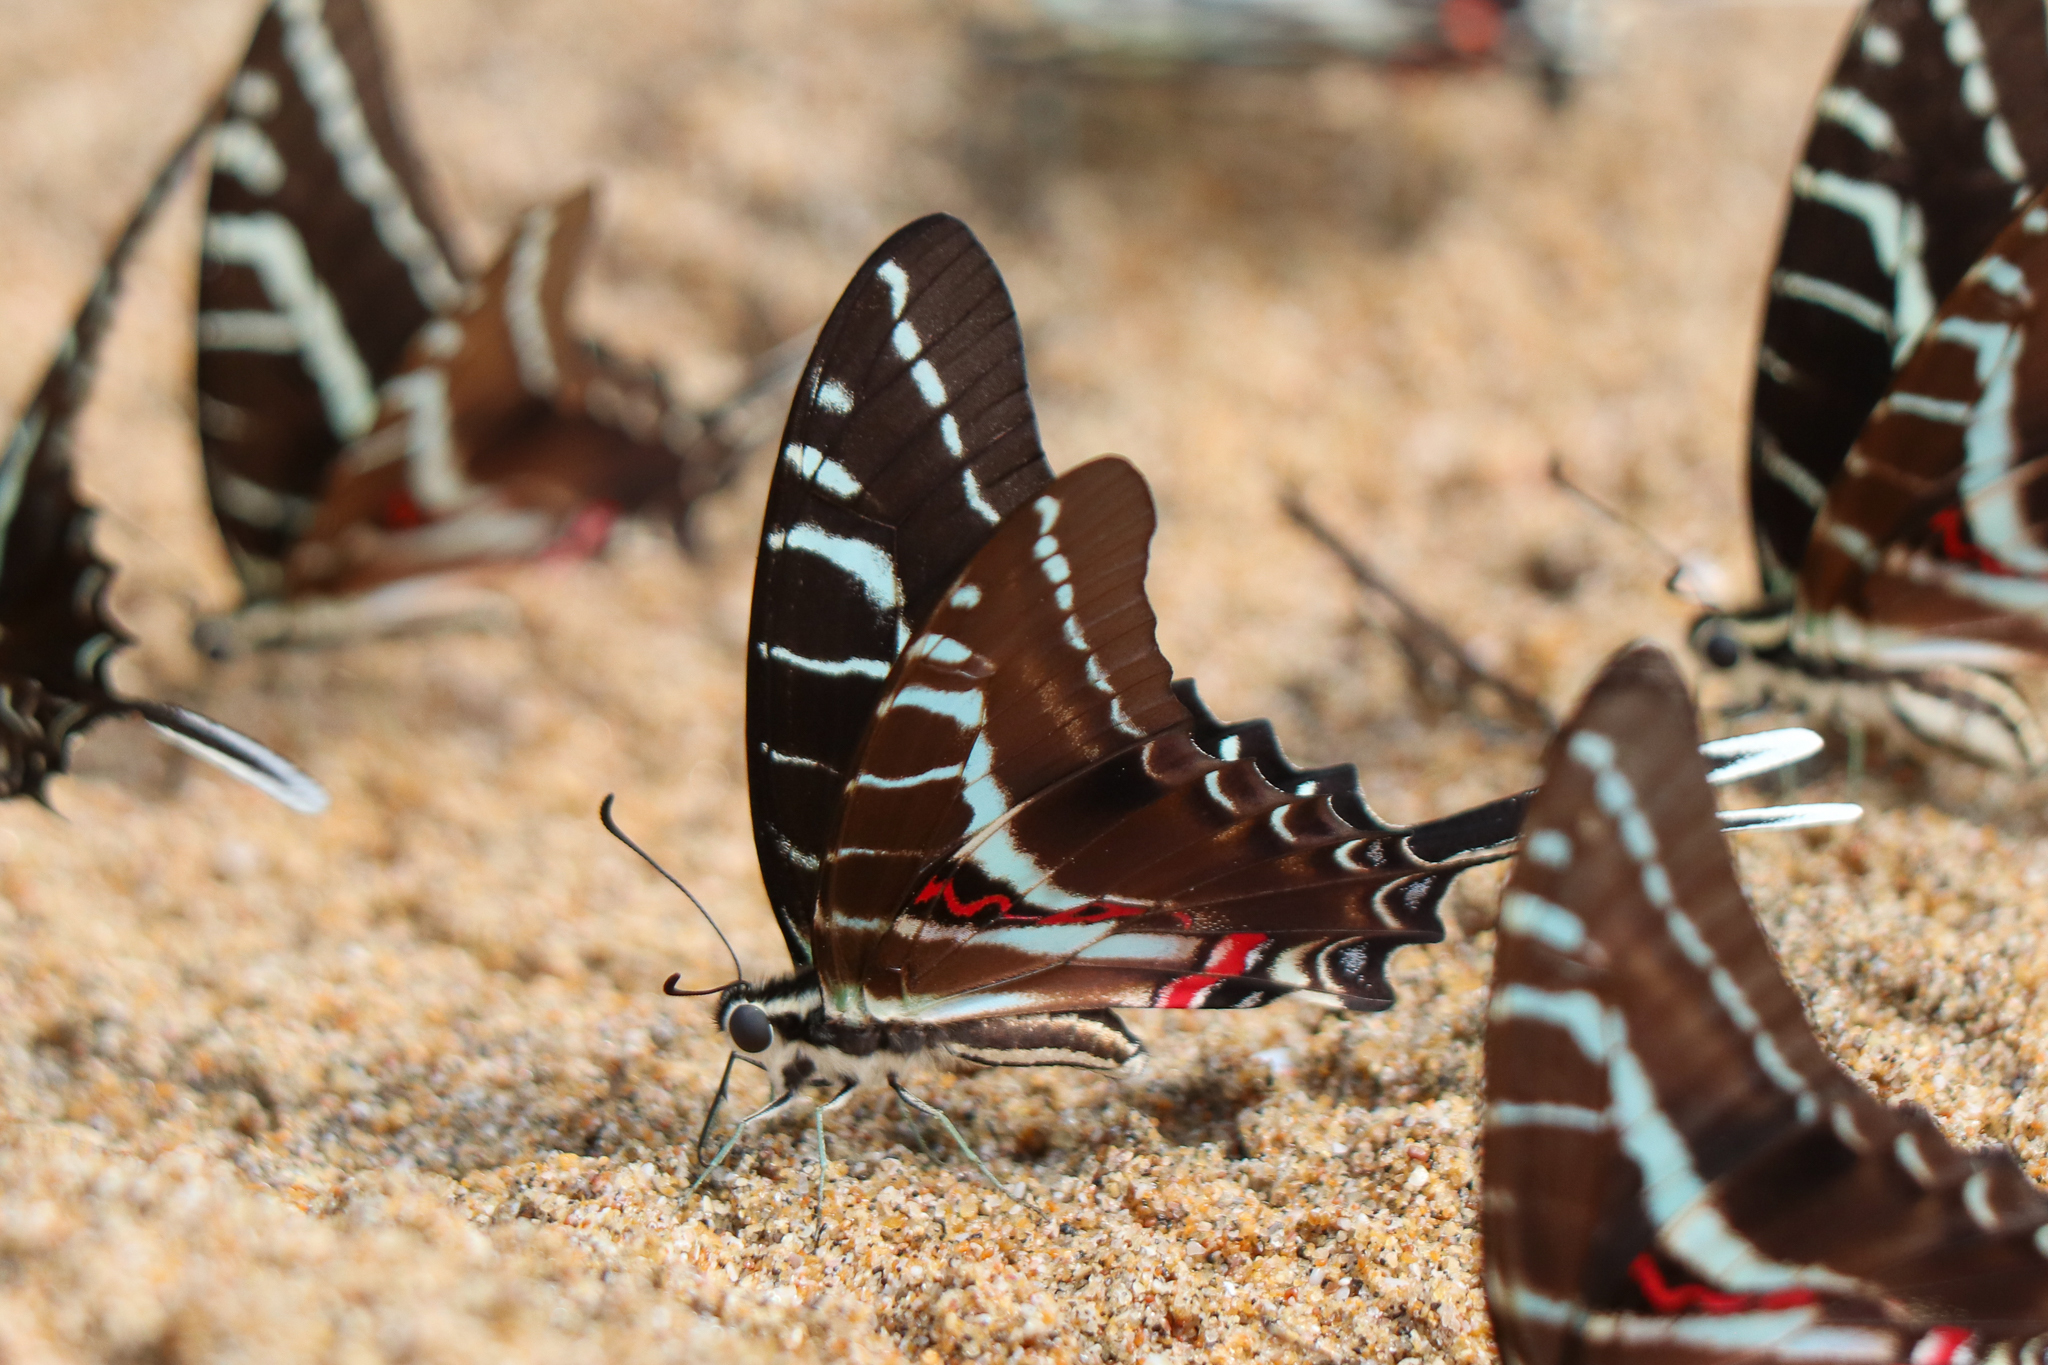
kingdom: Animalia
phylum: Arthropoda
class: Insecta
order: Lepidoptera
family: Papilionidae
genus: Protographium
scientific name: Protographium philolaus
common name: Dark zebra swallowtail
